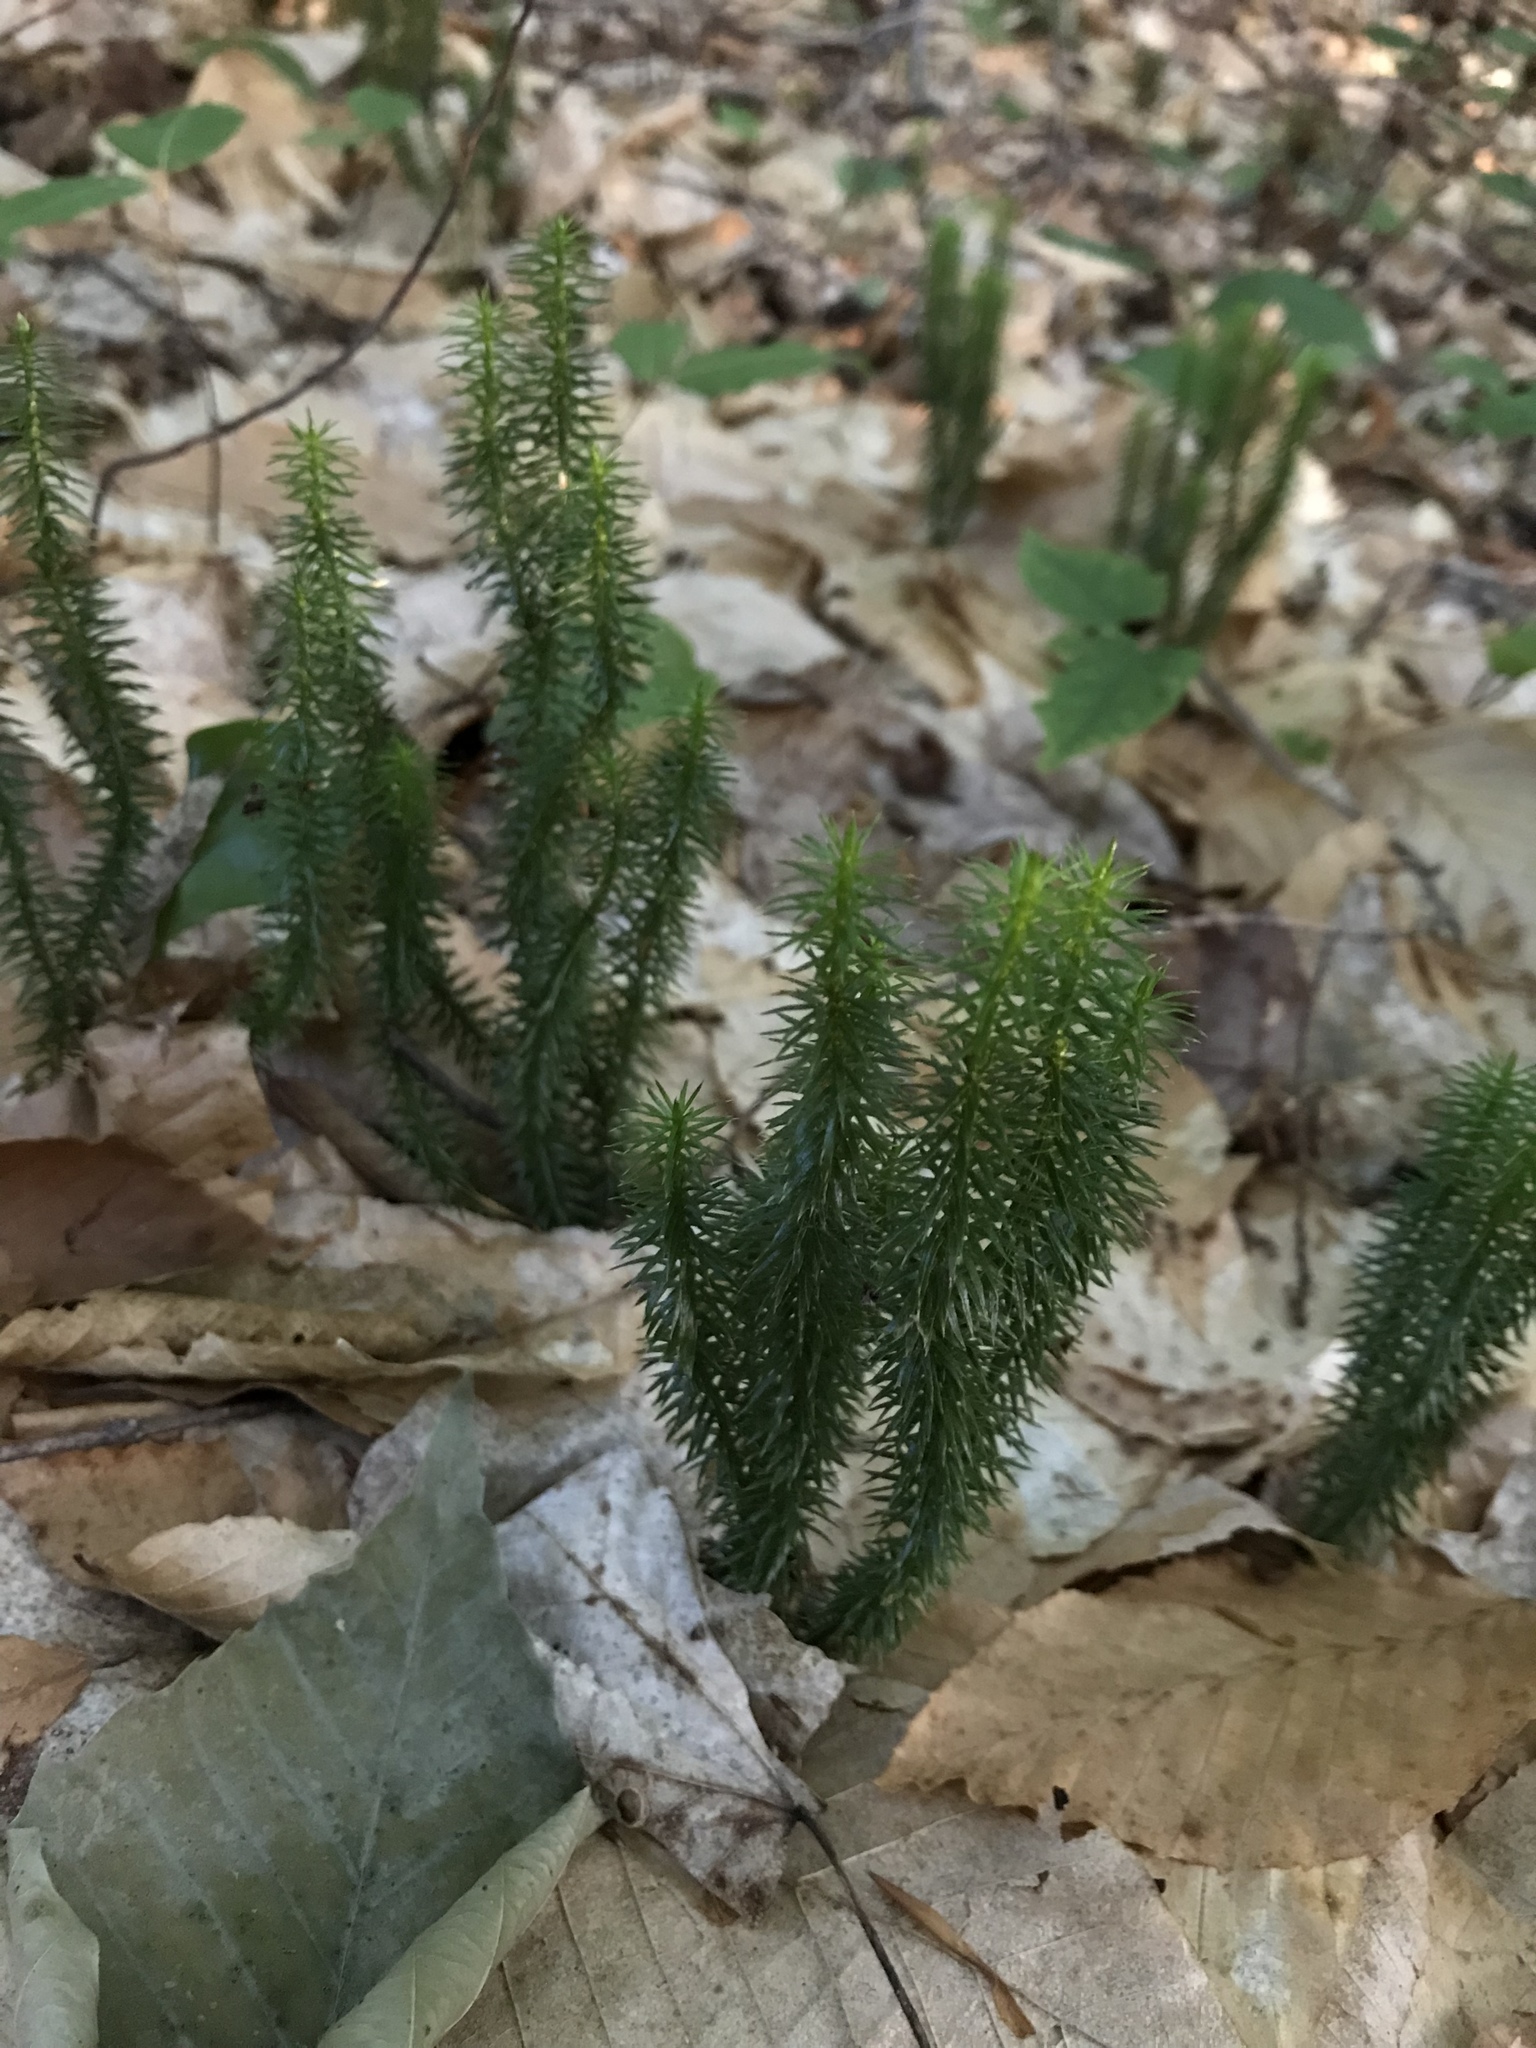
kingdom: Plantae
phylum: Tracheophyta
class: Lycopodiopsida
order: Lycopodiales
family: Lycopodiaceae
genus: Spinulum
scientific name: Spinulum annotinum
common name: Interrupted club-moss
